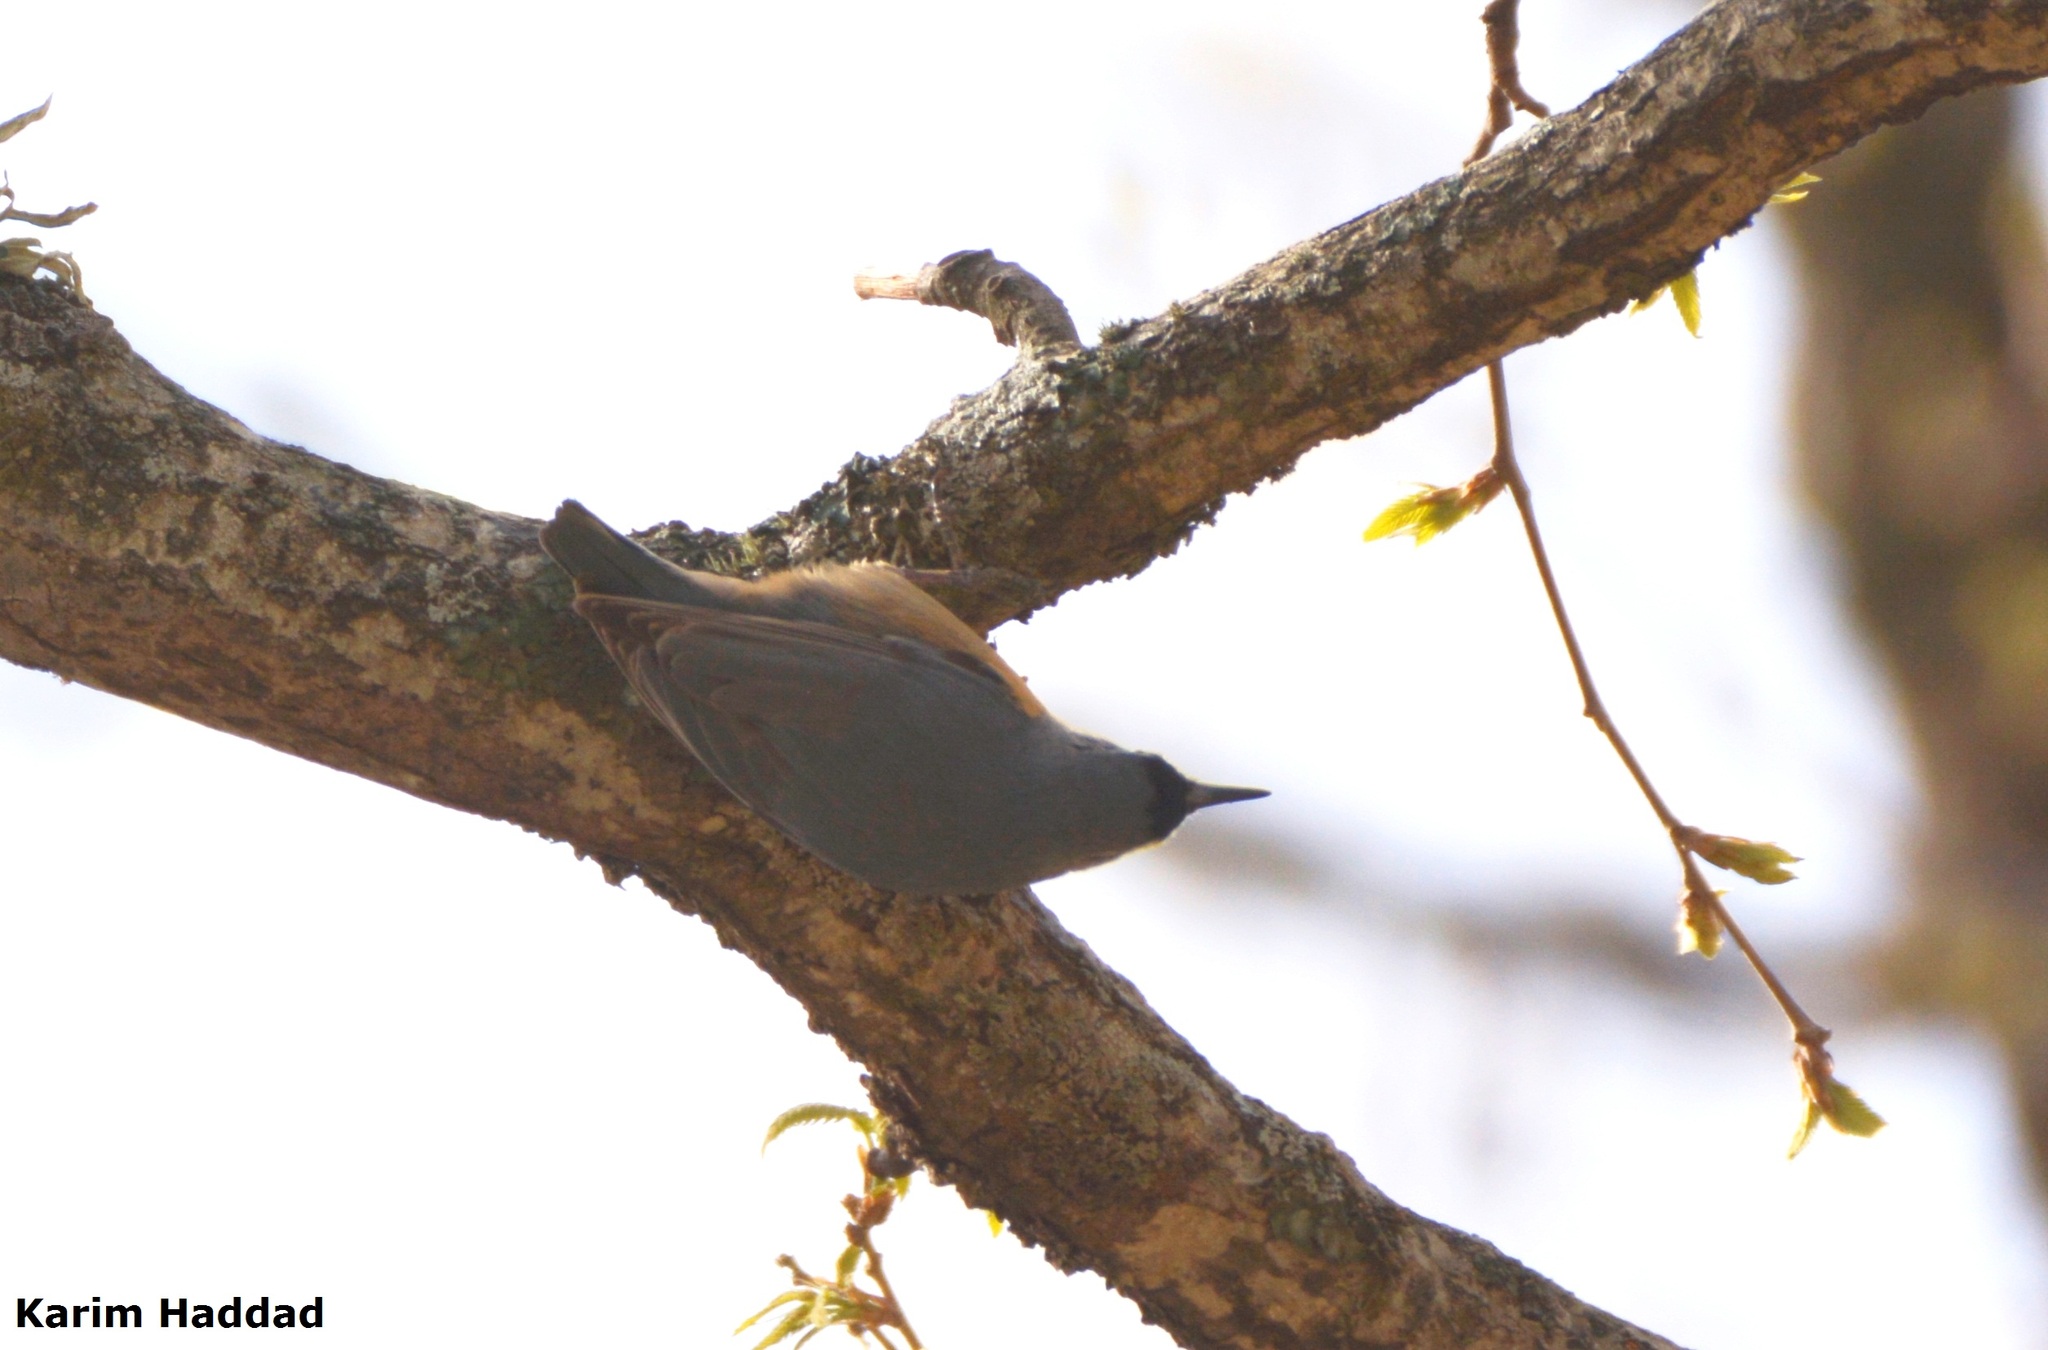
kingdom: Animalia
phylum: Chordata
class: Aves
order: Passeriformes
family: Sittidae
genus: Sitta
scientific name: Sitta ledanti
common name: Algerian nuthatch
